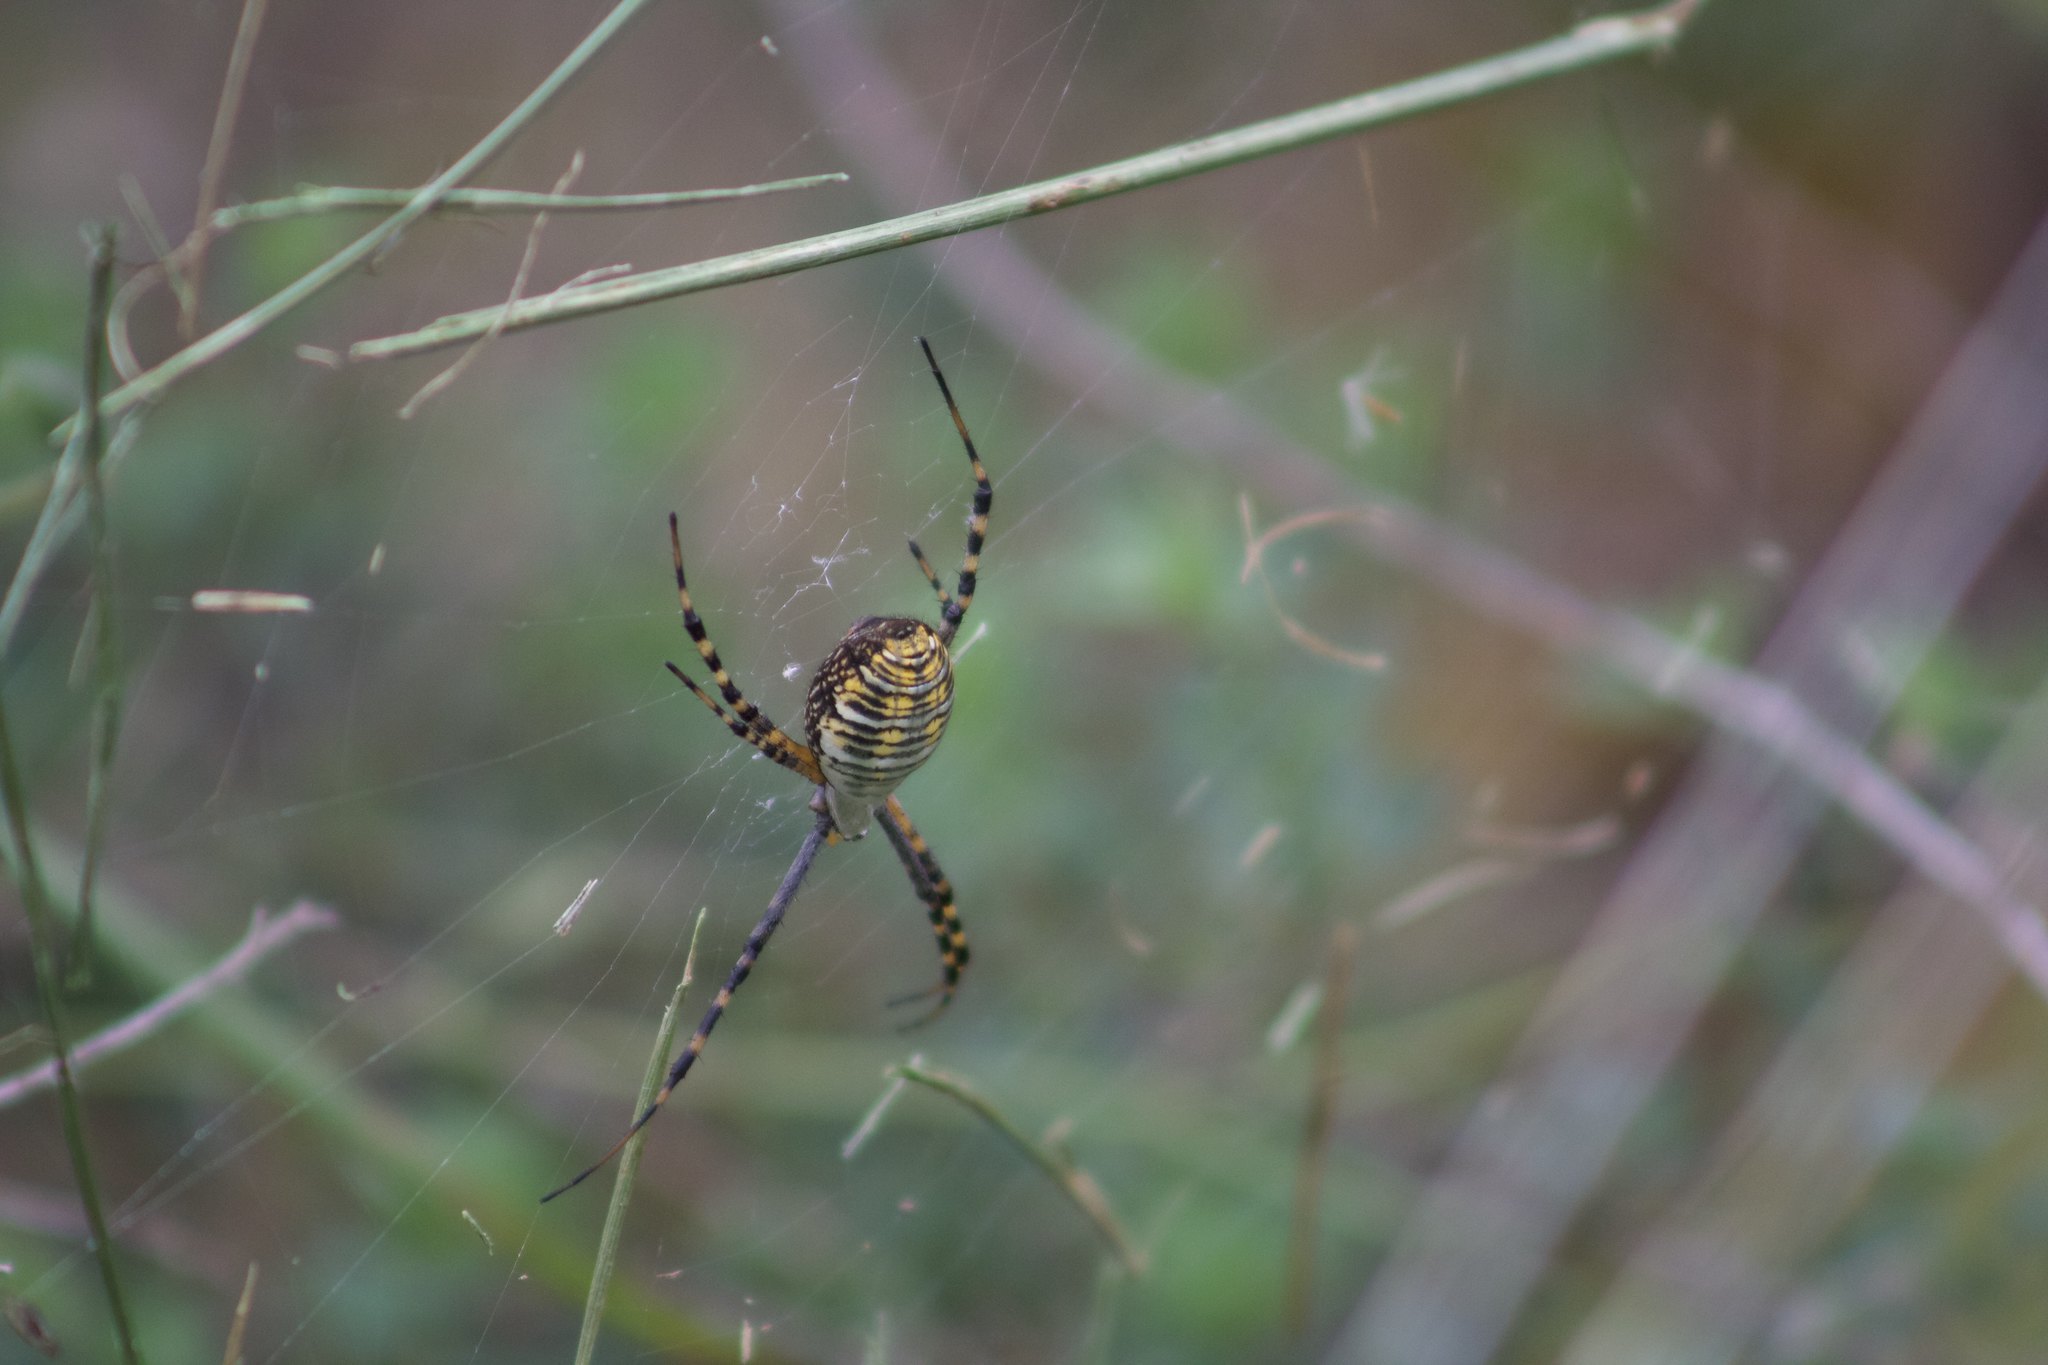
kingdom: Animalia
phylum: Arthropoda
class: Arachnida
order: Araneae
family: Araneidae
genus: Argiope
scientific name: Argiope trifasciata
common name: Banded garden spider
